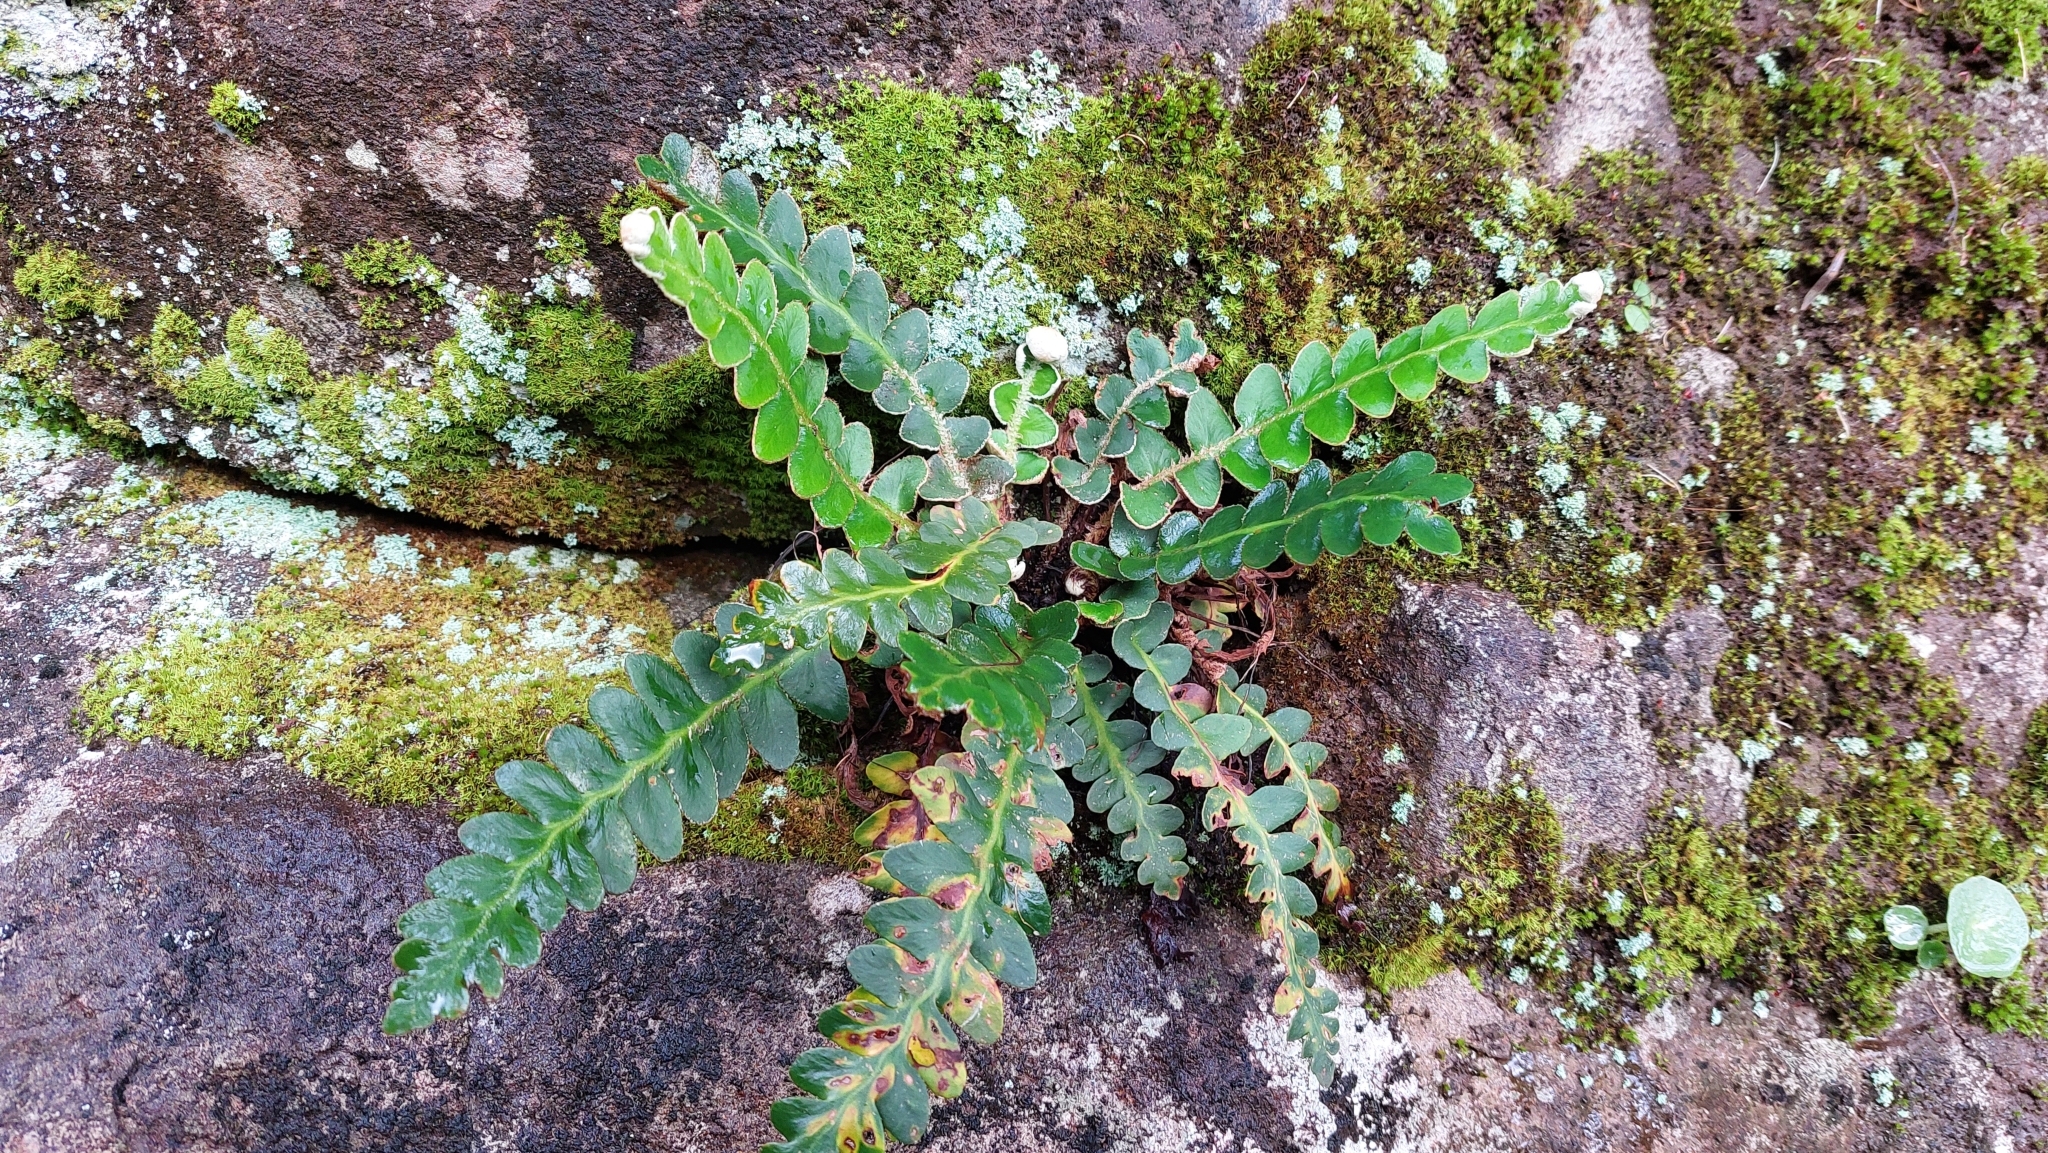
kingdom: Plantae
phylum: Tracheophyta
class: Polypodiopsida
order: Polypodiales
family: Aspleniaceae
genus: Asplenium
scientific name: Asplenium lolegnamense
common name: Madeira rustyback fern
